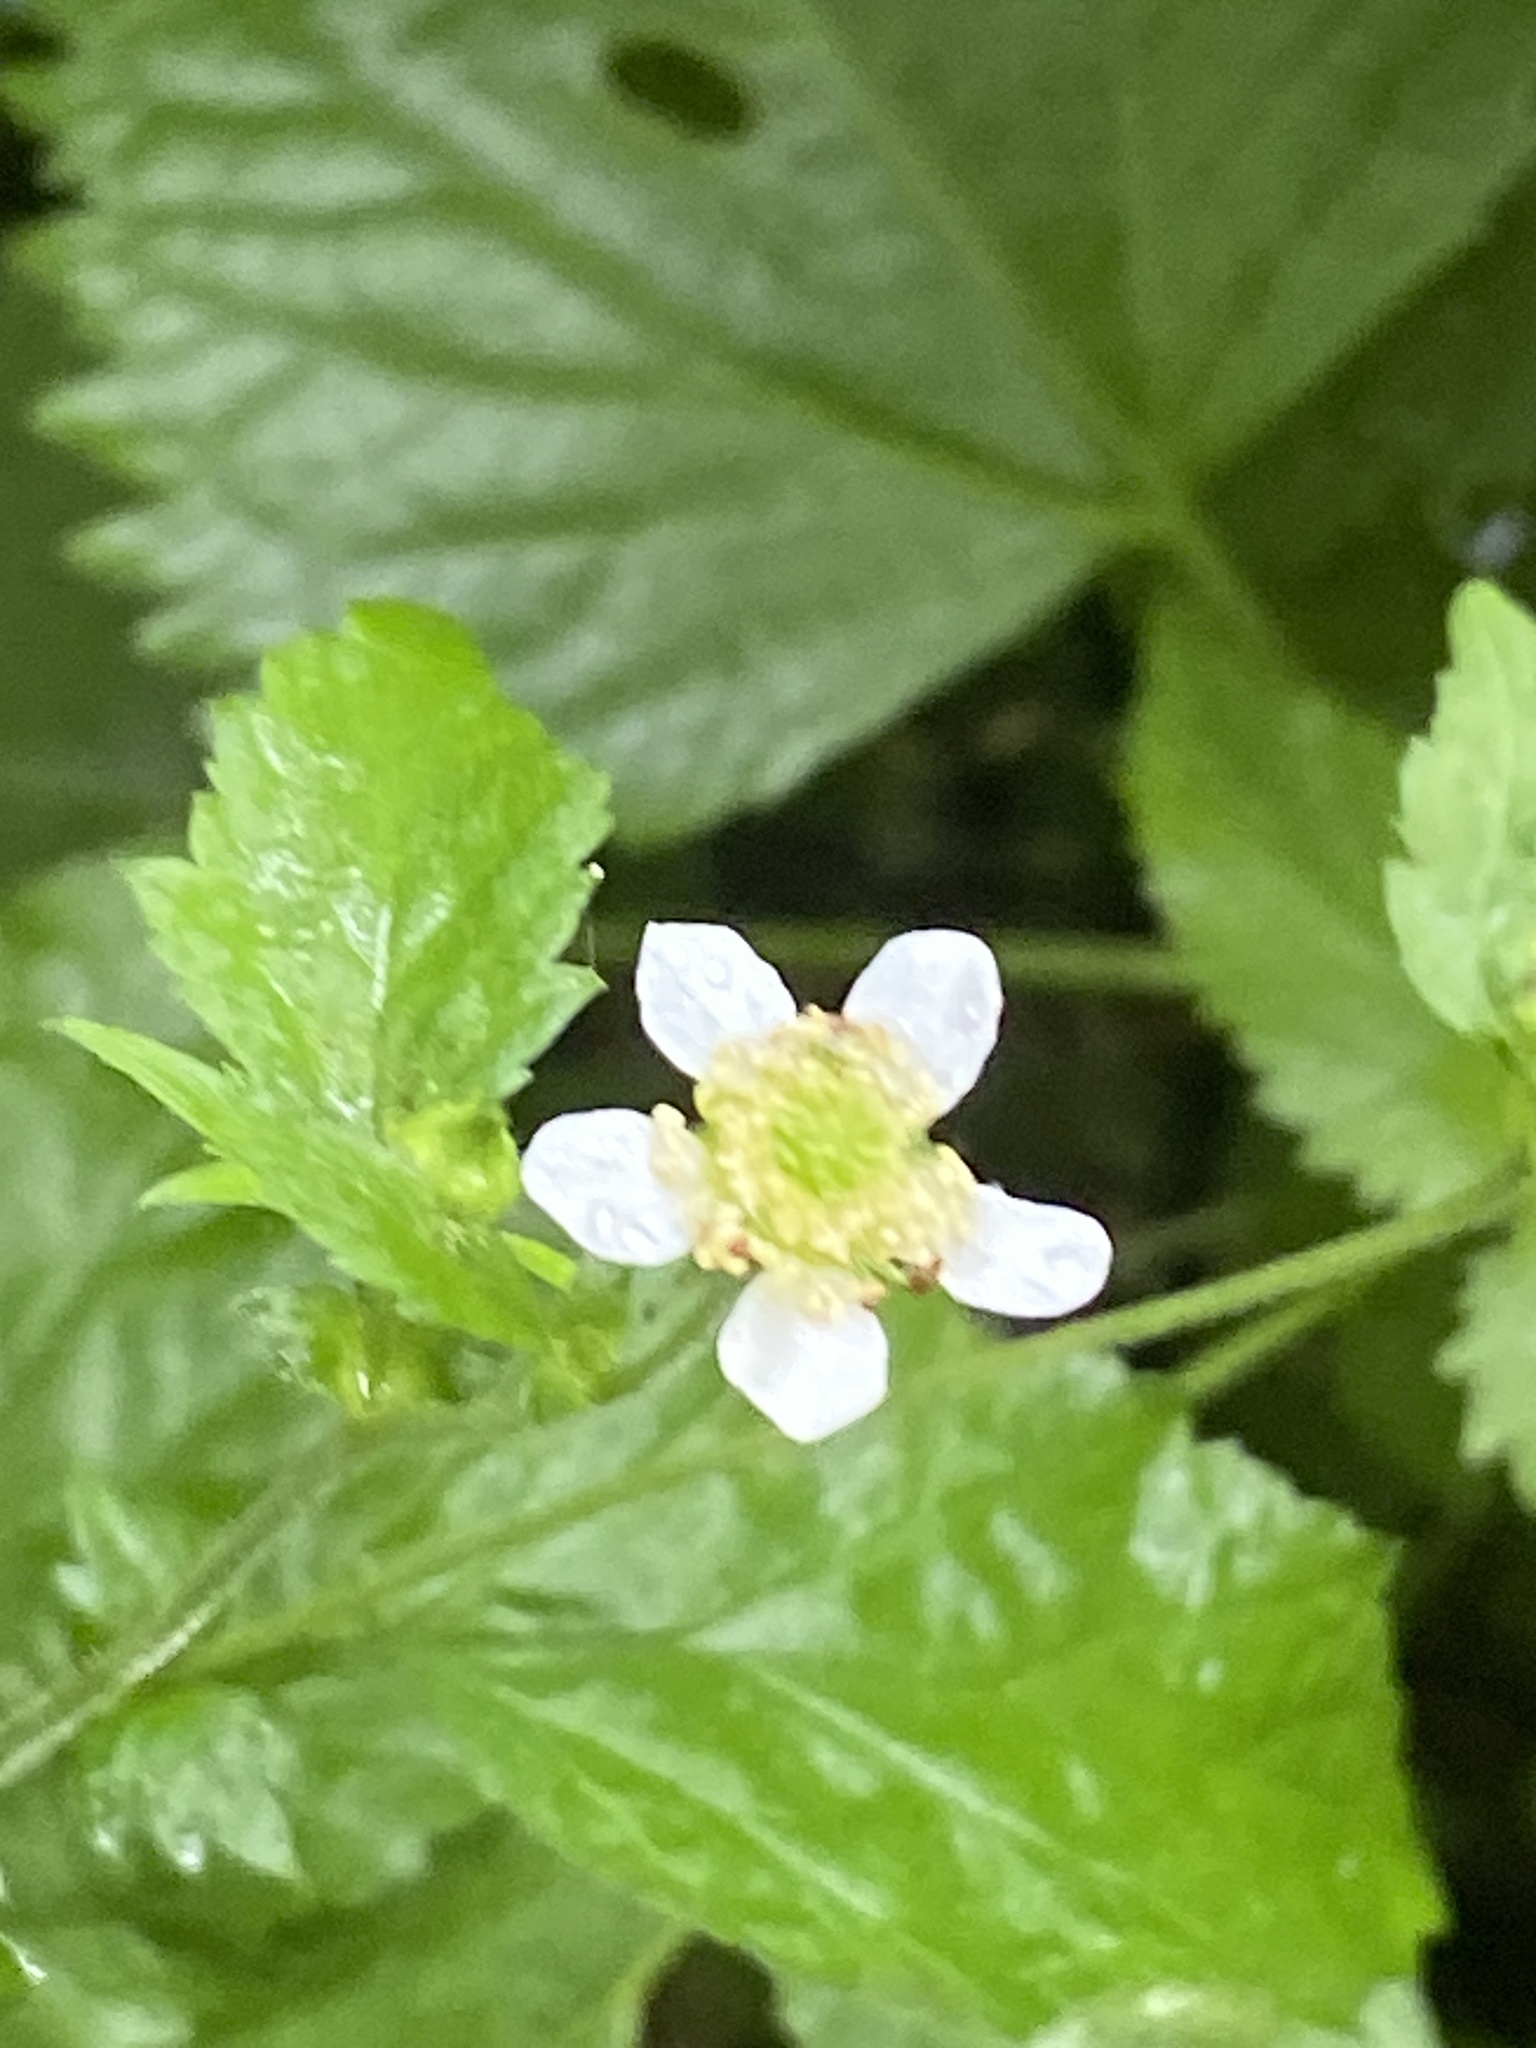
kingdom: Plantae
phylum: Tracheophyta
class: Magnoliopsida
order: Rosales
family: Rosaceae
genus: Geum
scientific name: Geum canadense
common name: White avens
